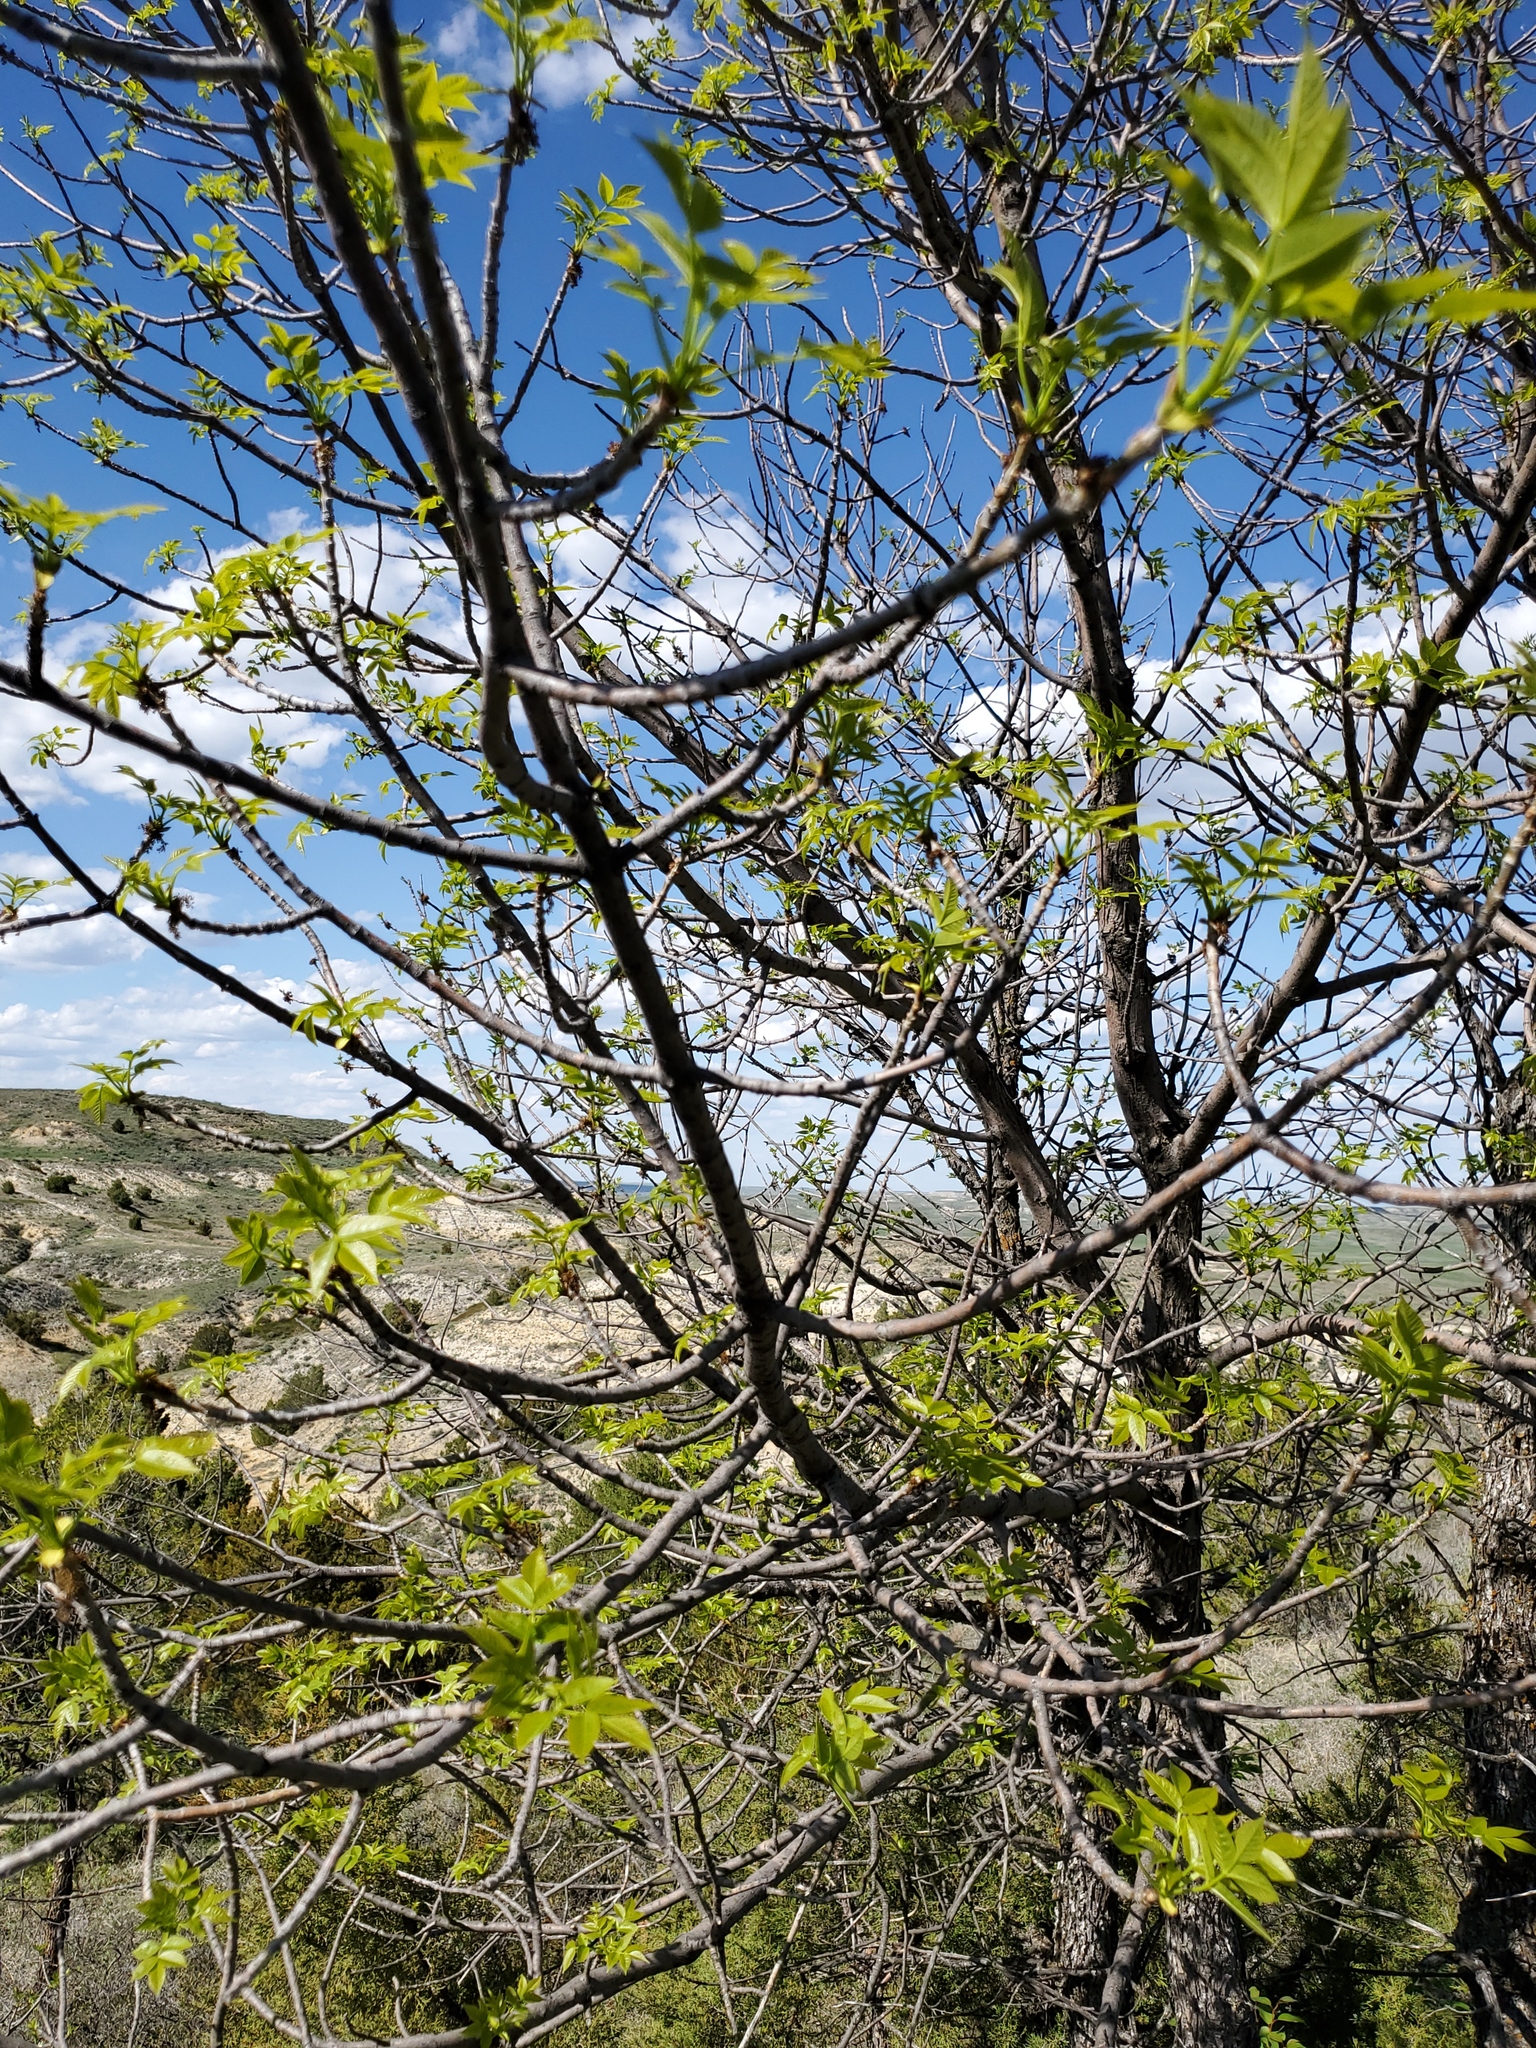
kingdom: Plantae
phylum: Tracheophyta
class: Magnoliopsida
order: Lamiales
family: Oleaceae
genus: Fraxinus
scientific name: Fraxinus pennsylvanica
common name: Green ash
